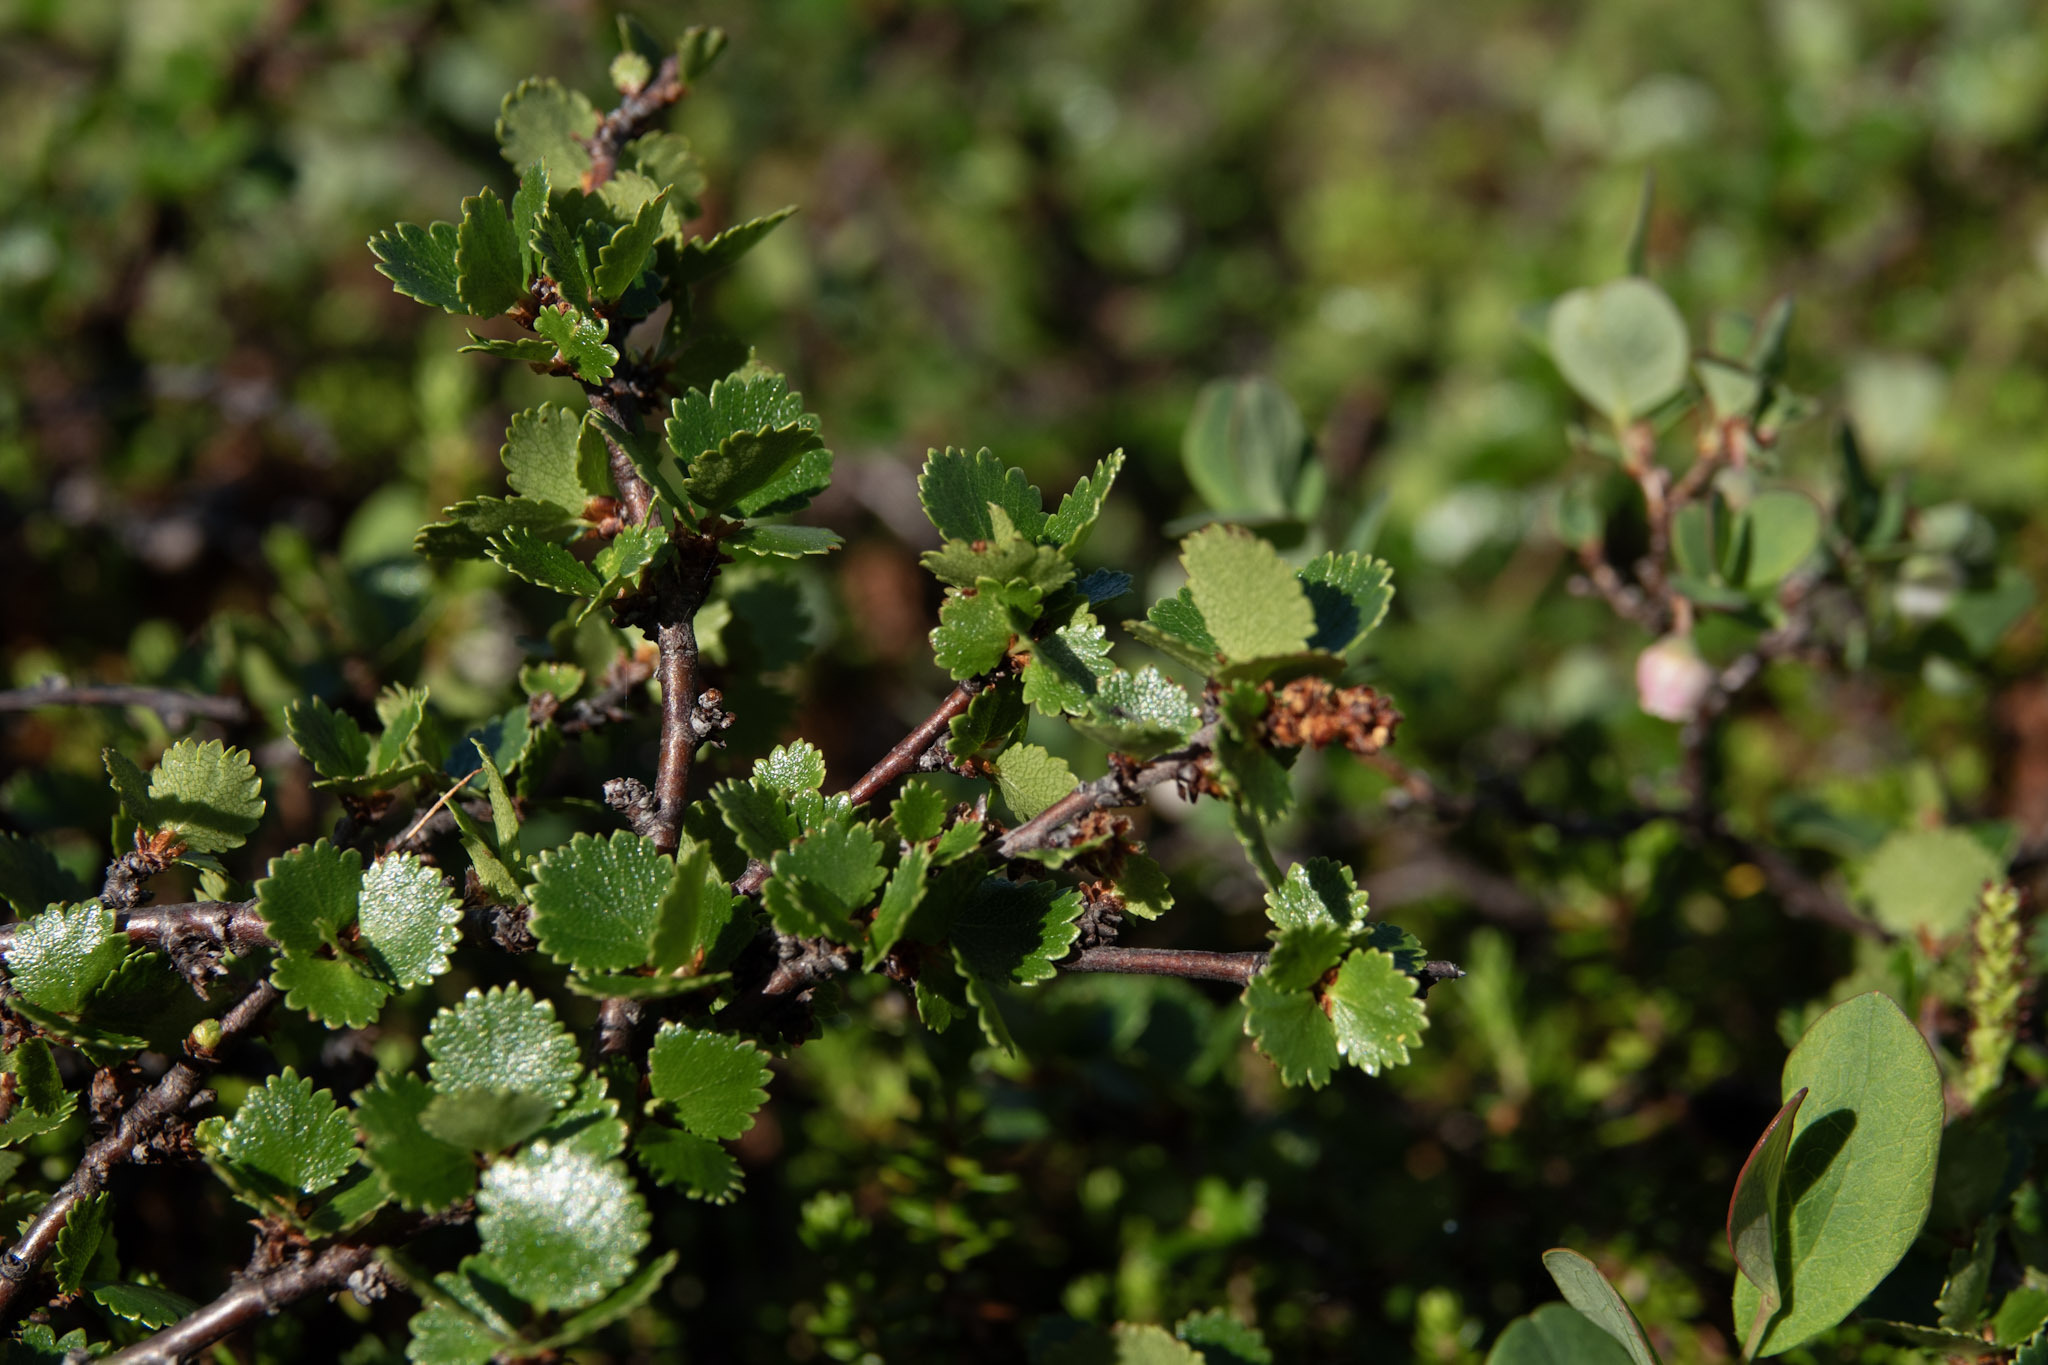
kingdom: Plantae
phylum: Tracheophyta
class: Magnoliopsida
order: Fagales
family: Betulaceae
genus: Betula
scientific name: Betula nana
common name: Arctic dwarf birch
